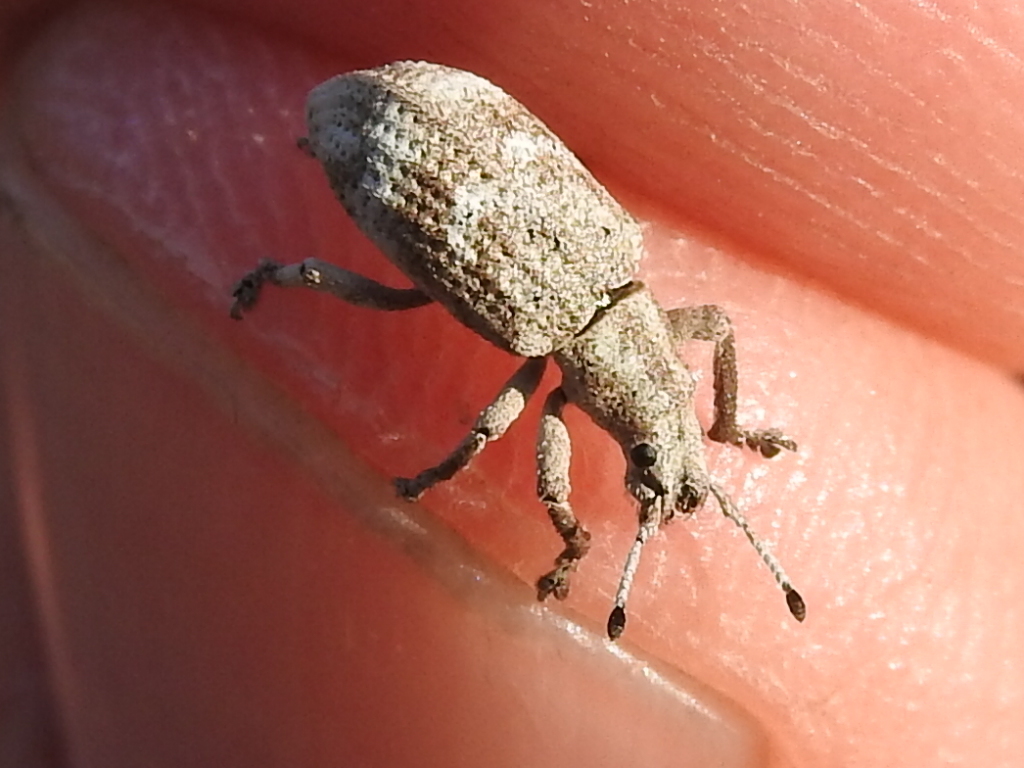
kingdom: Animalia
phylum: Arthropoda
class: Insecta
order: Coleoptera
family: Curculionidae
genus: Brachystylus
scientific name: Brachystylus microphthalmus
